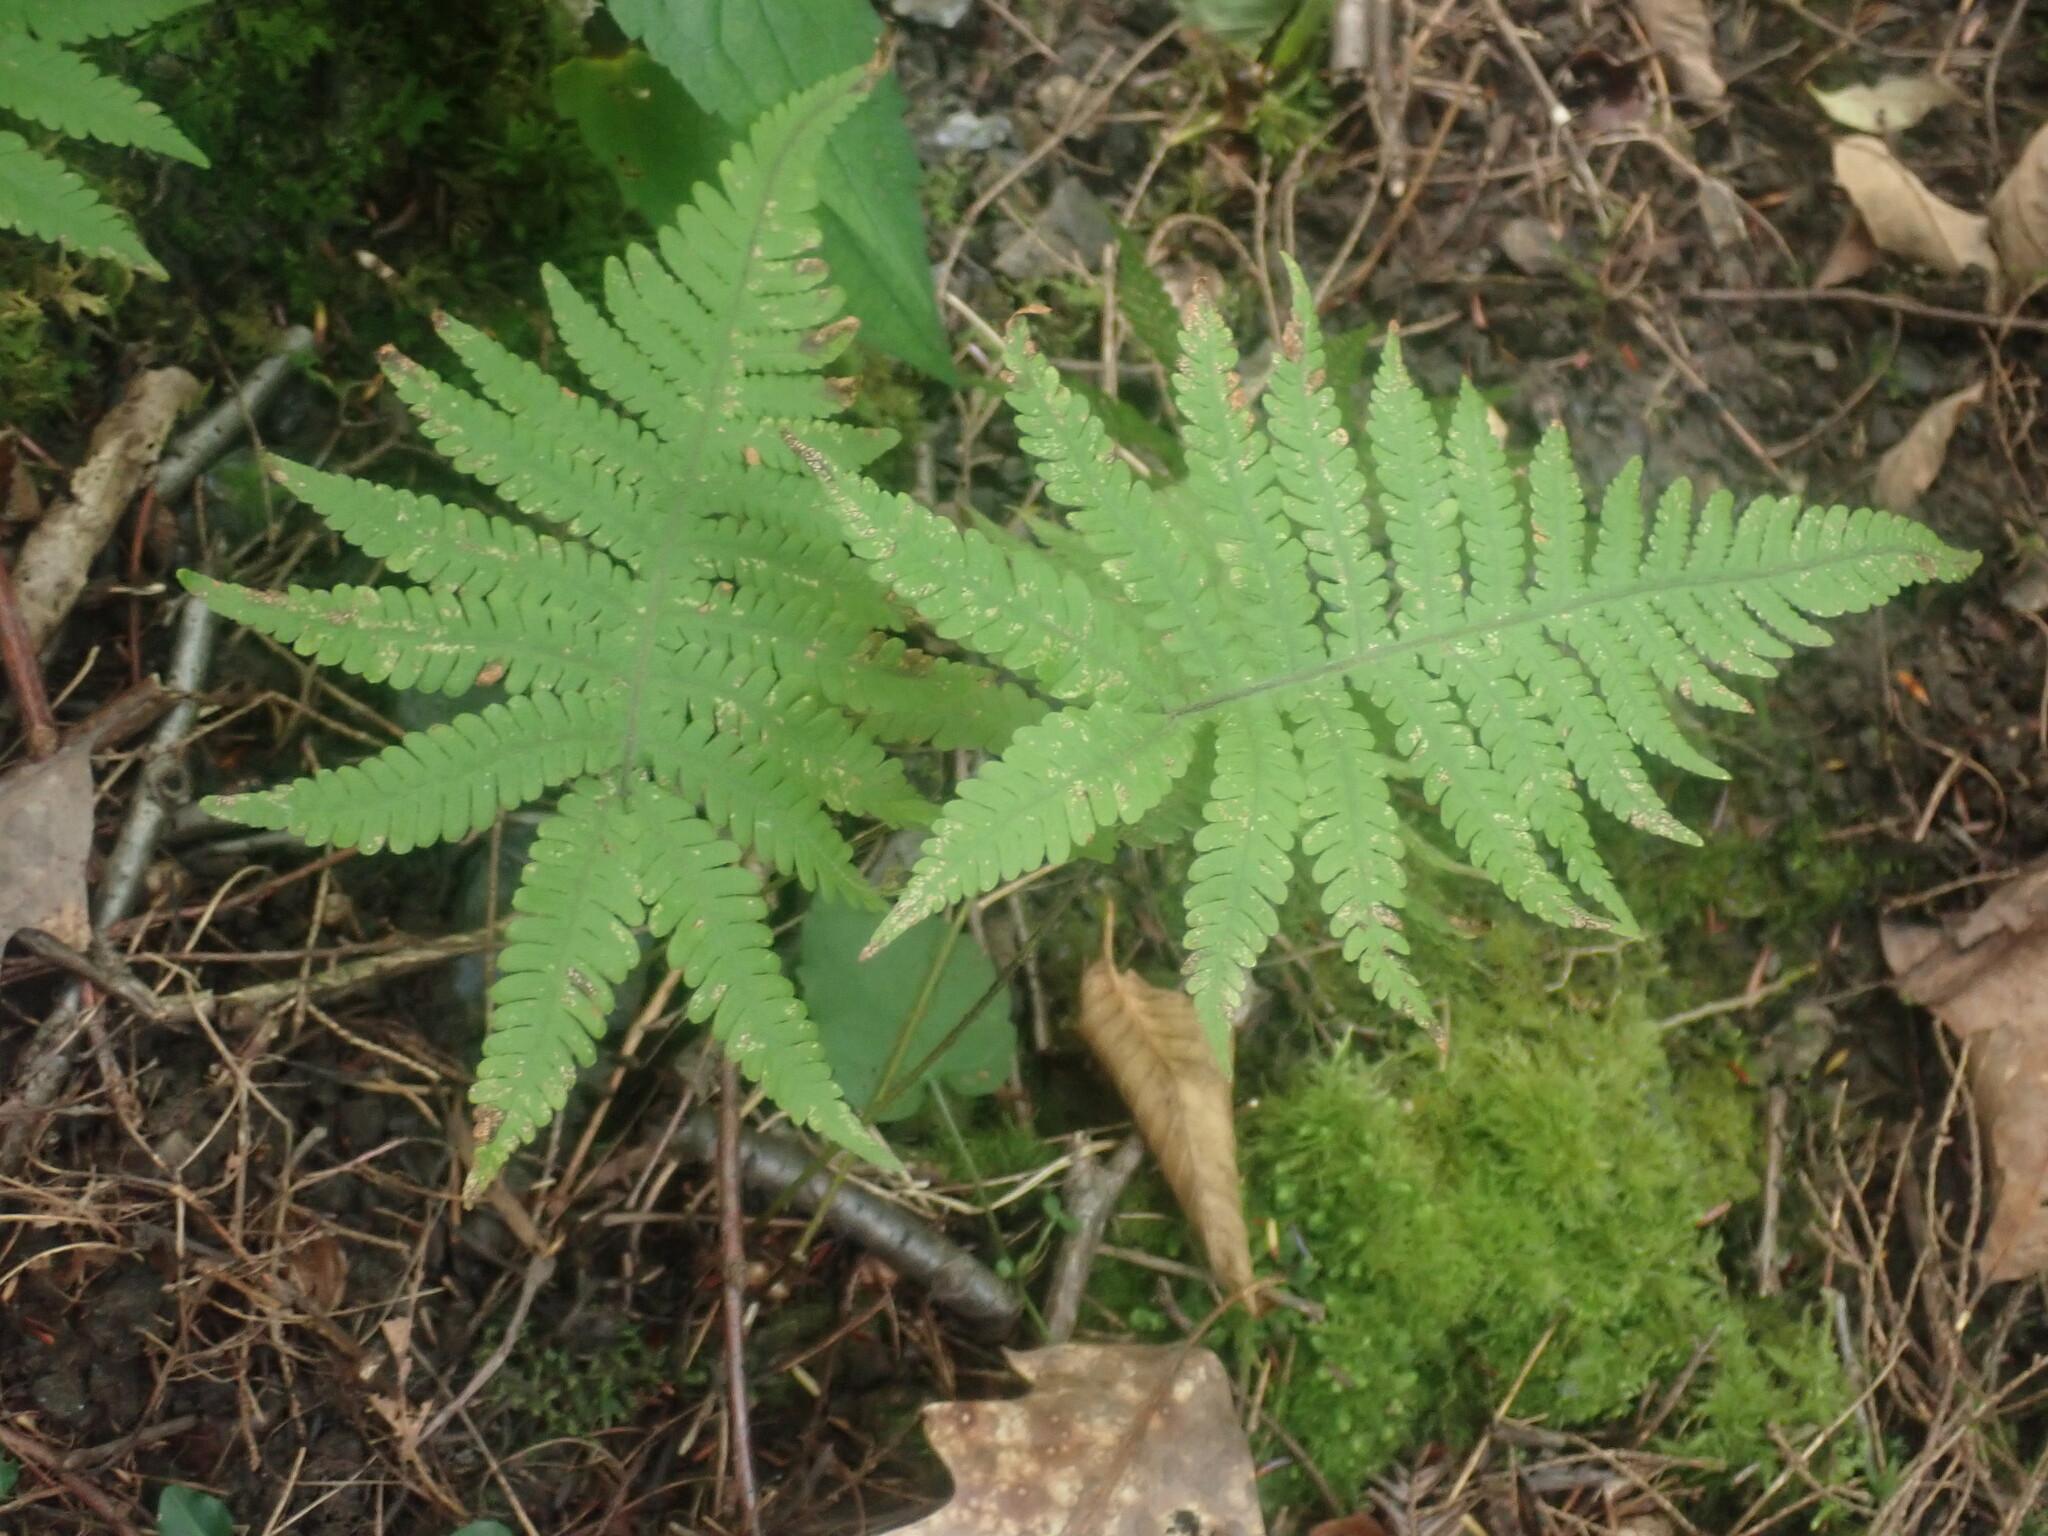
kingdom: Plantae
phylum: Tracheophyta
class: Polypodiopsida
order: Polypodiales
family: Thelypteridaceae
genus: Phegopteris
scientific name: Phegopteris connectilis
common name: Beech fern
